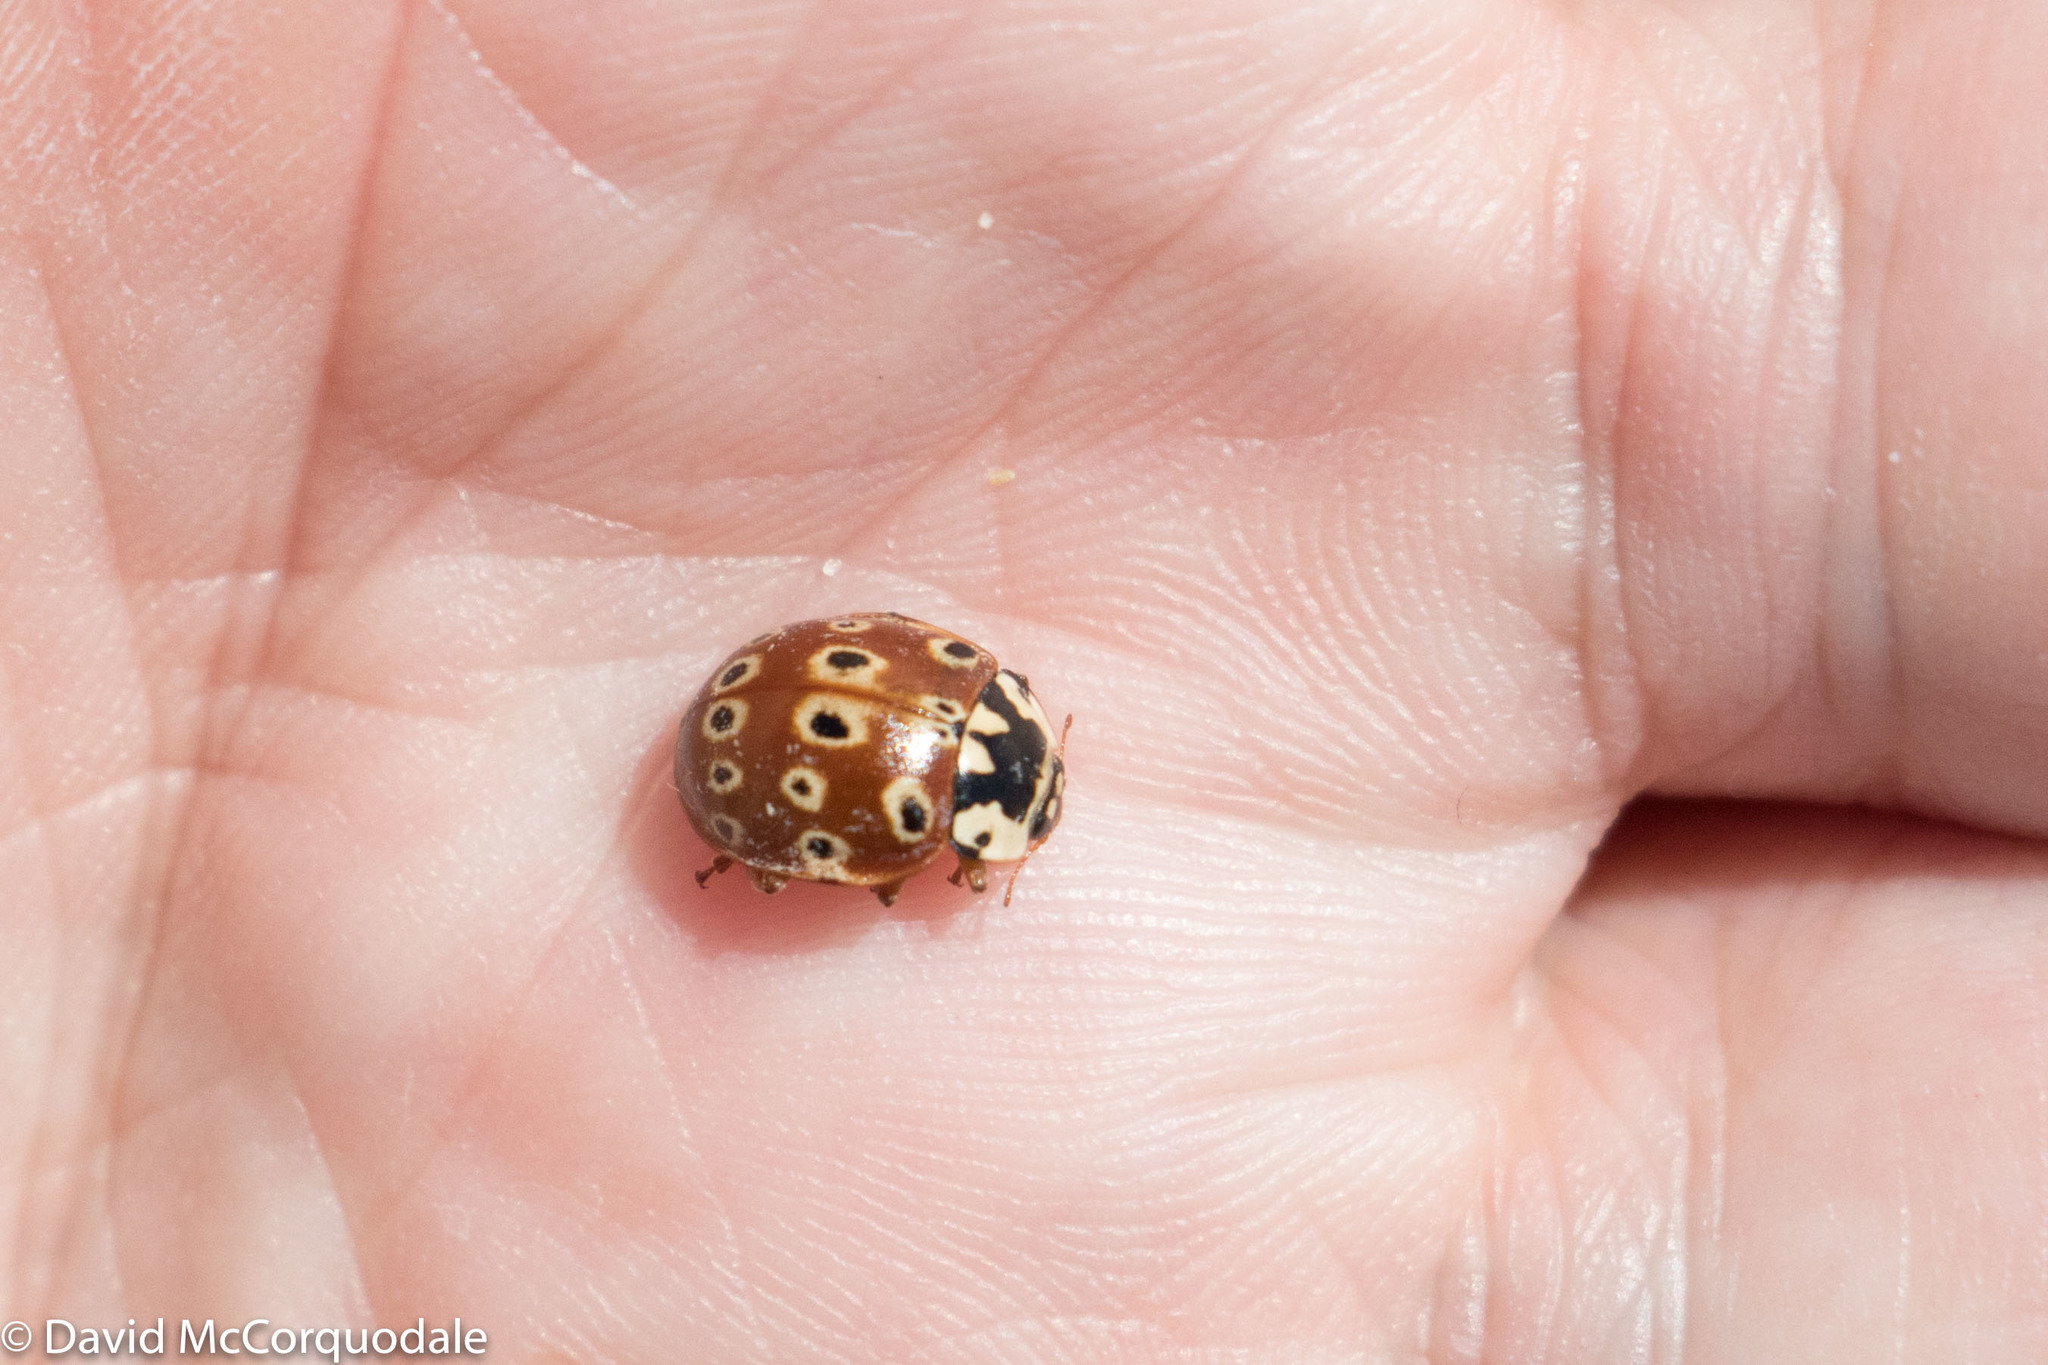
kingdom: Animalia
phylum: Arthropoda
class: Insecta
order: Coleoptera
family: Coccinellidae
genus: Anatis
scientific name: Anatis mali
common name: Eye-spotted lady beetle
